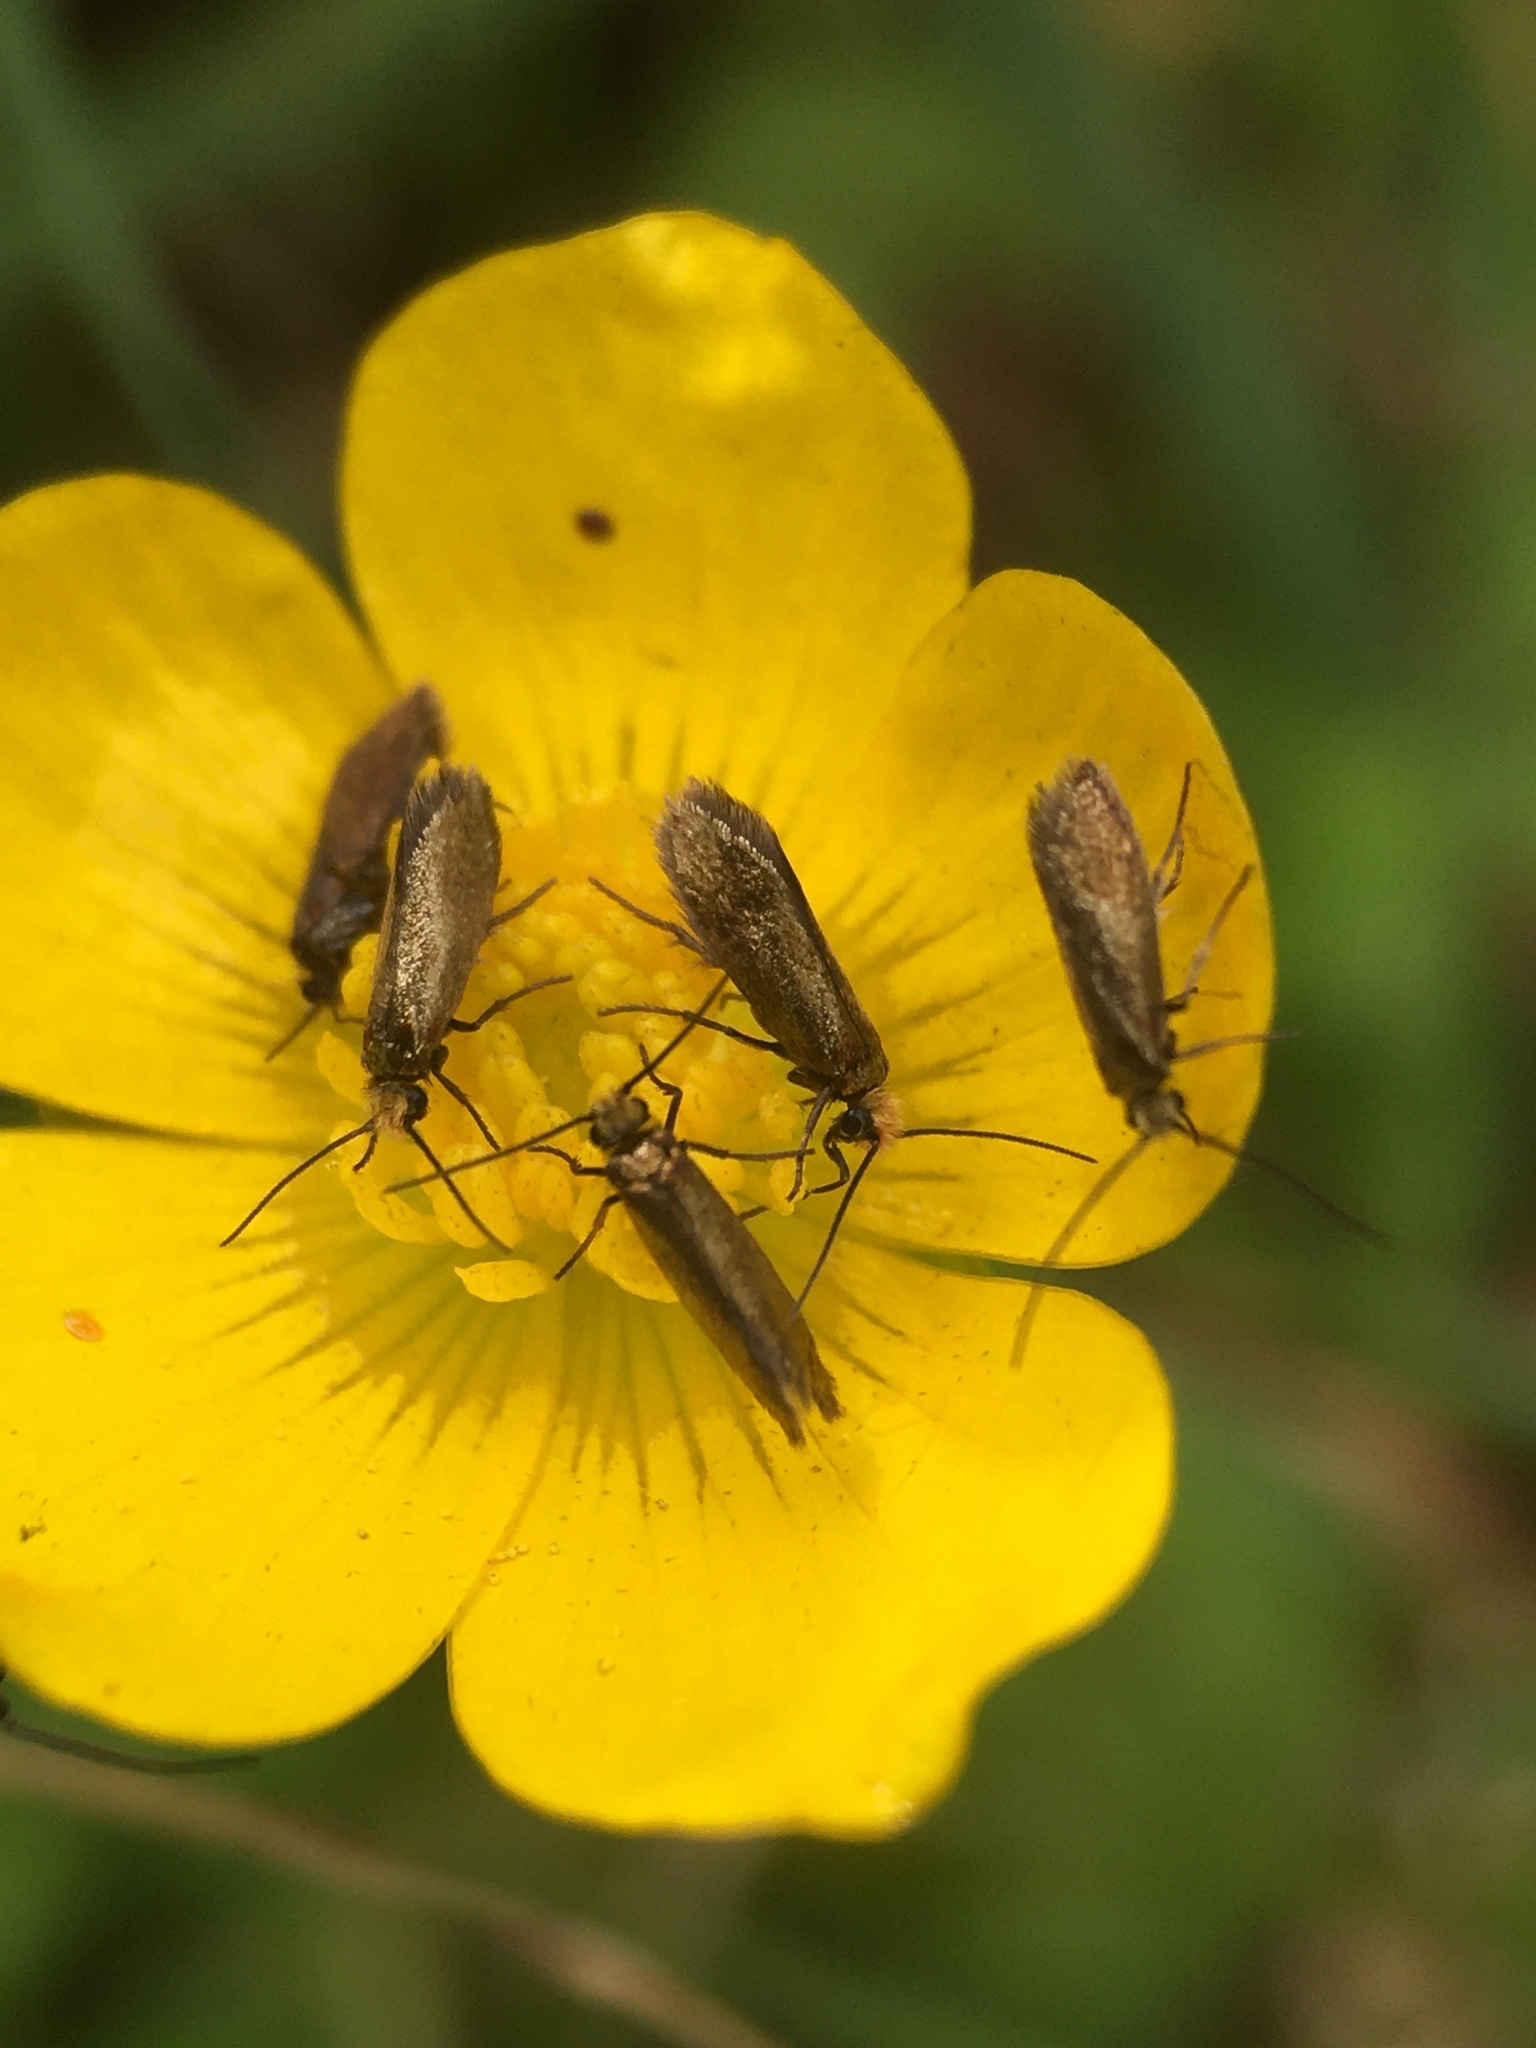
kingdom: Animalia
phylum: Arthropoda
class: Insecta
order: Lepidoptera
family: Micropterigidae
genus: Micropterix
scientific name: Micropterix calthella
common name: Plain gold
